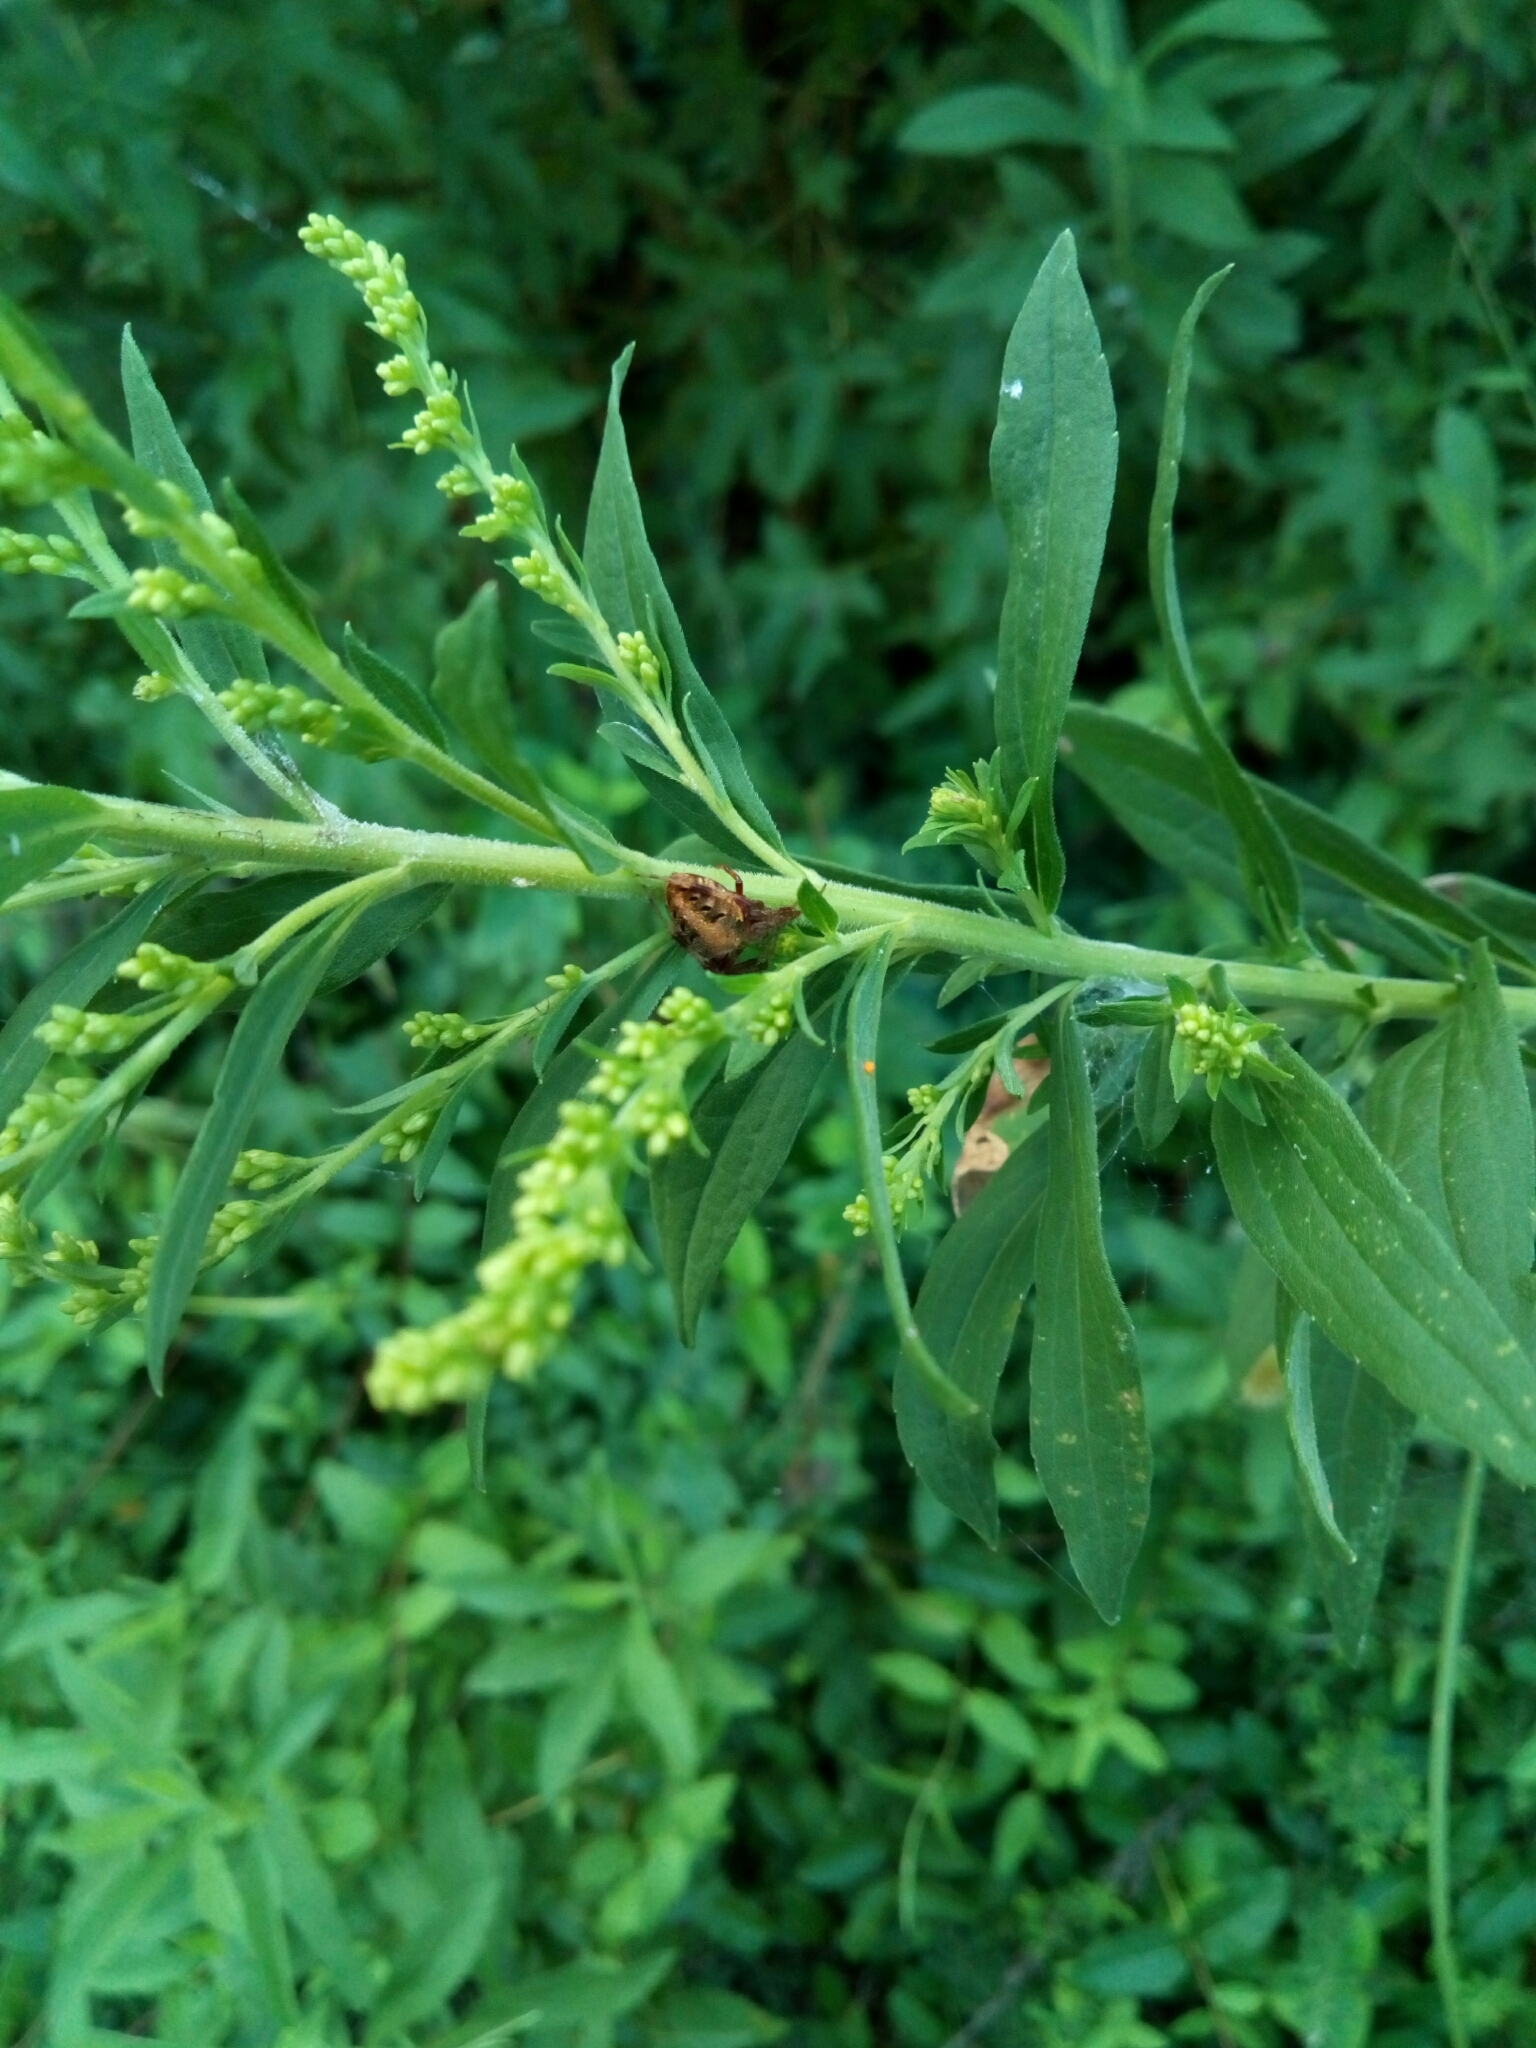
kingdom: Animalia
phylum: Arthropoda
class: Arachnida
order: Araneae
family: Araneidae
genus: Neoscona
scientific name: Neoscona arabesca
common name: Orb weavers
